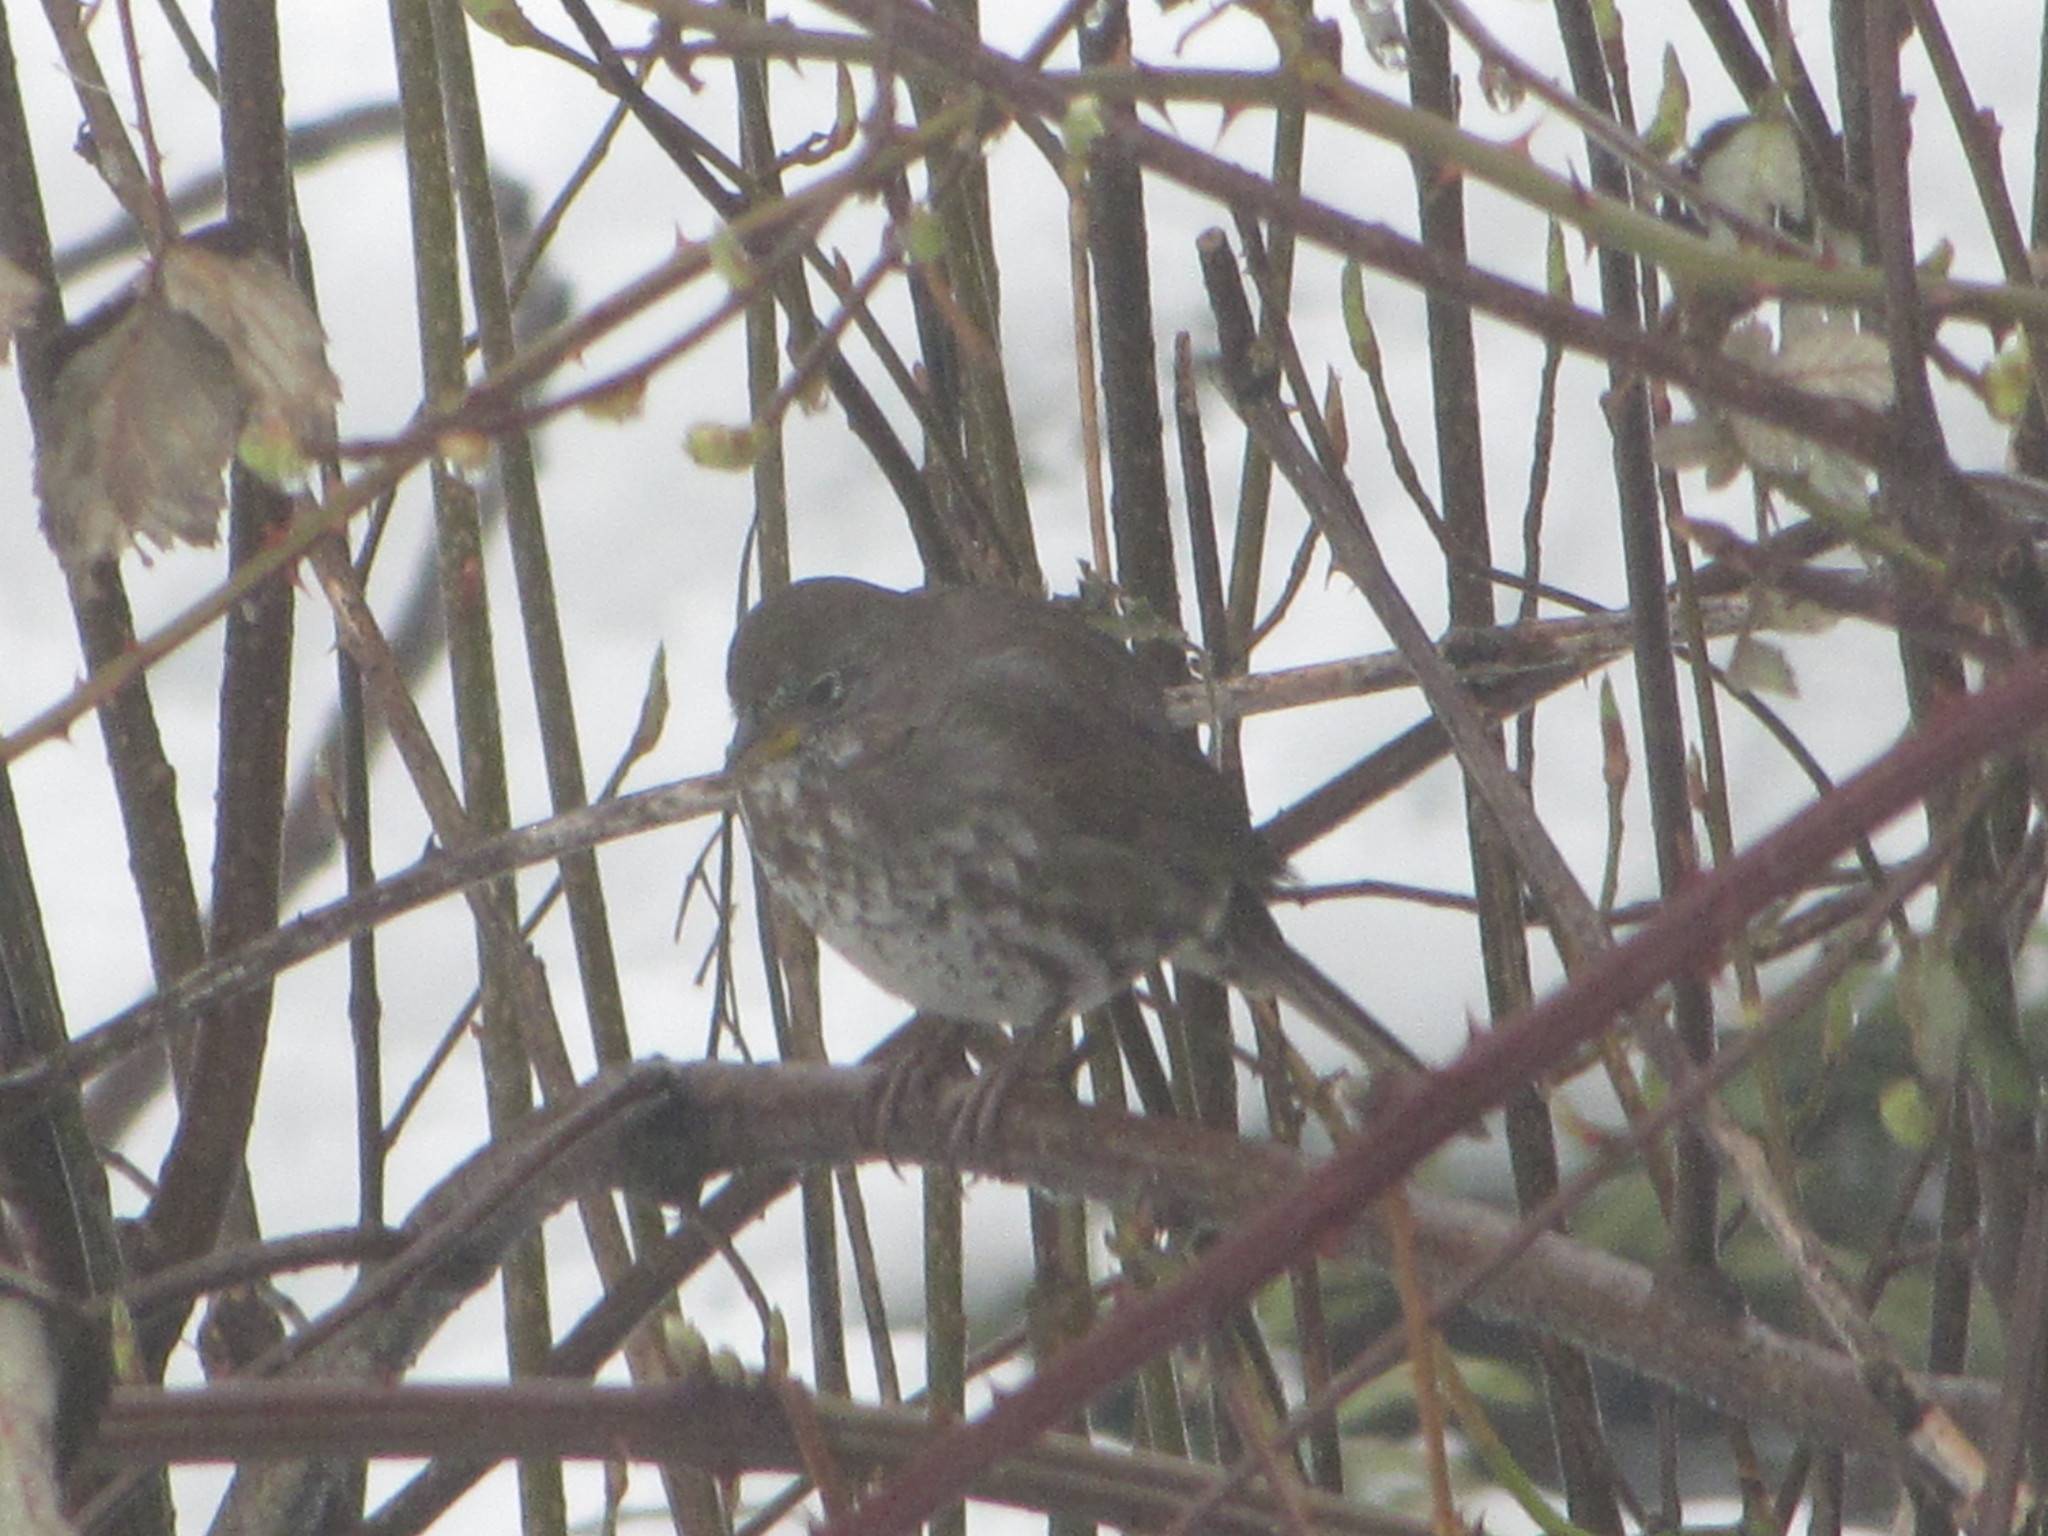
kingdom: Animalia
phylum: Chordata
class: Aves
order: Passeriformes
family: Passerellidae
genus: Passerella
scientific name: Passerella iliaca
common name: Fox sparrow
